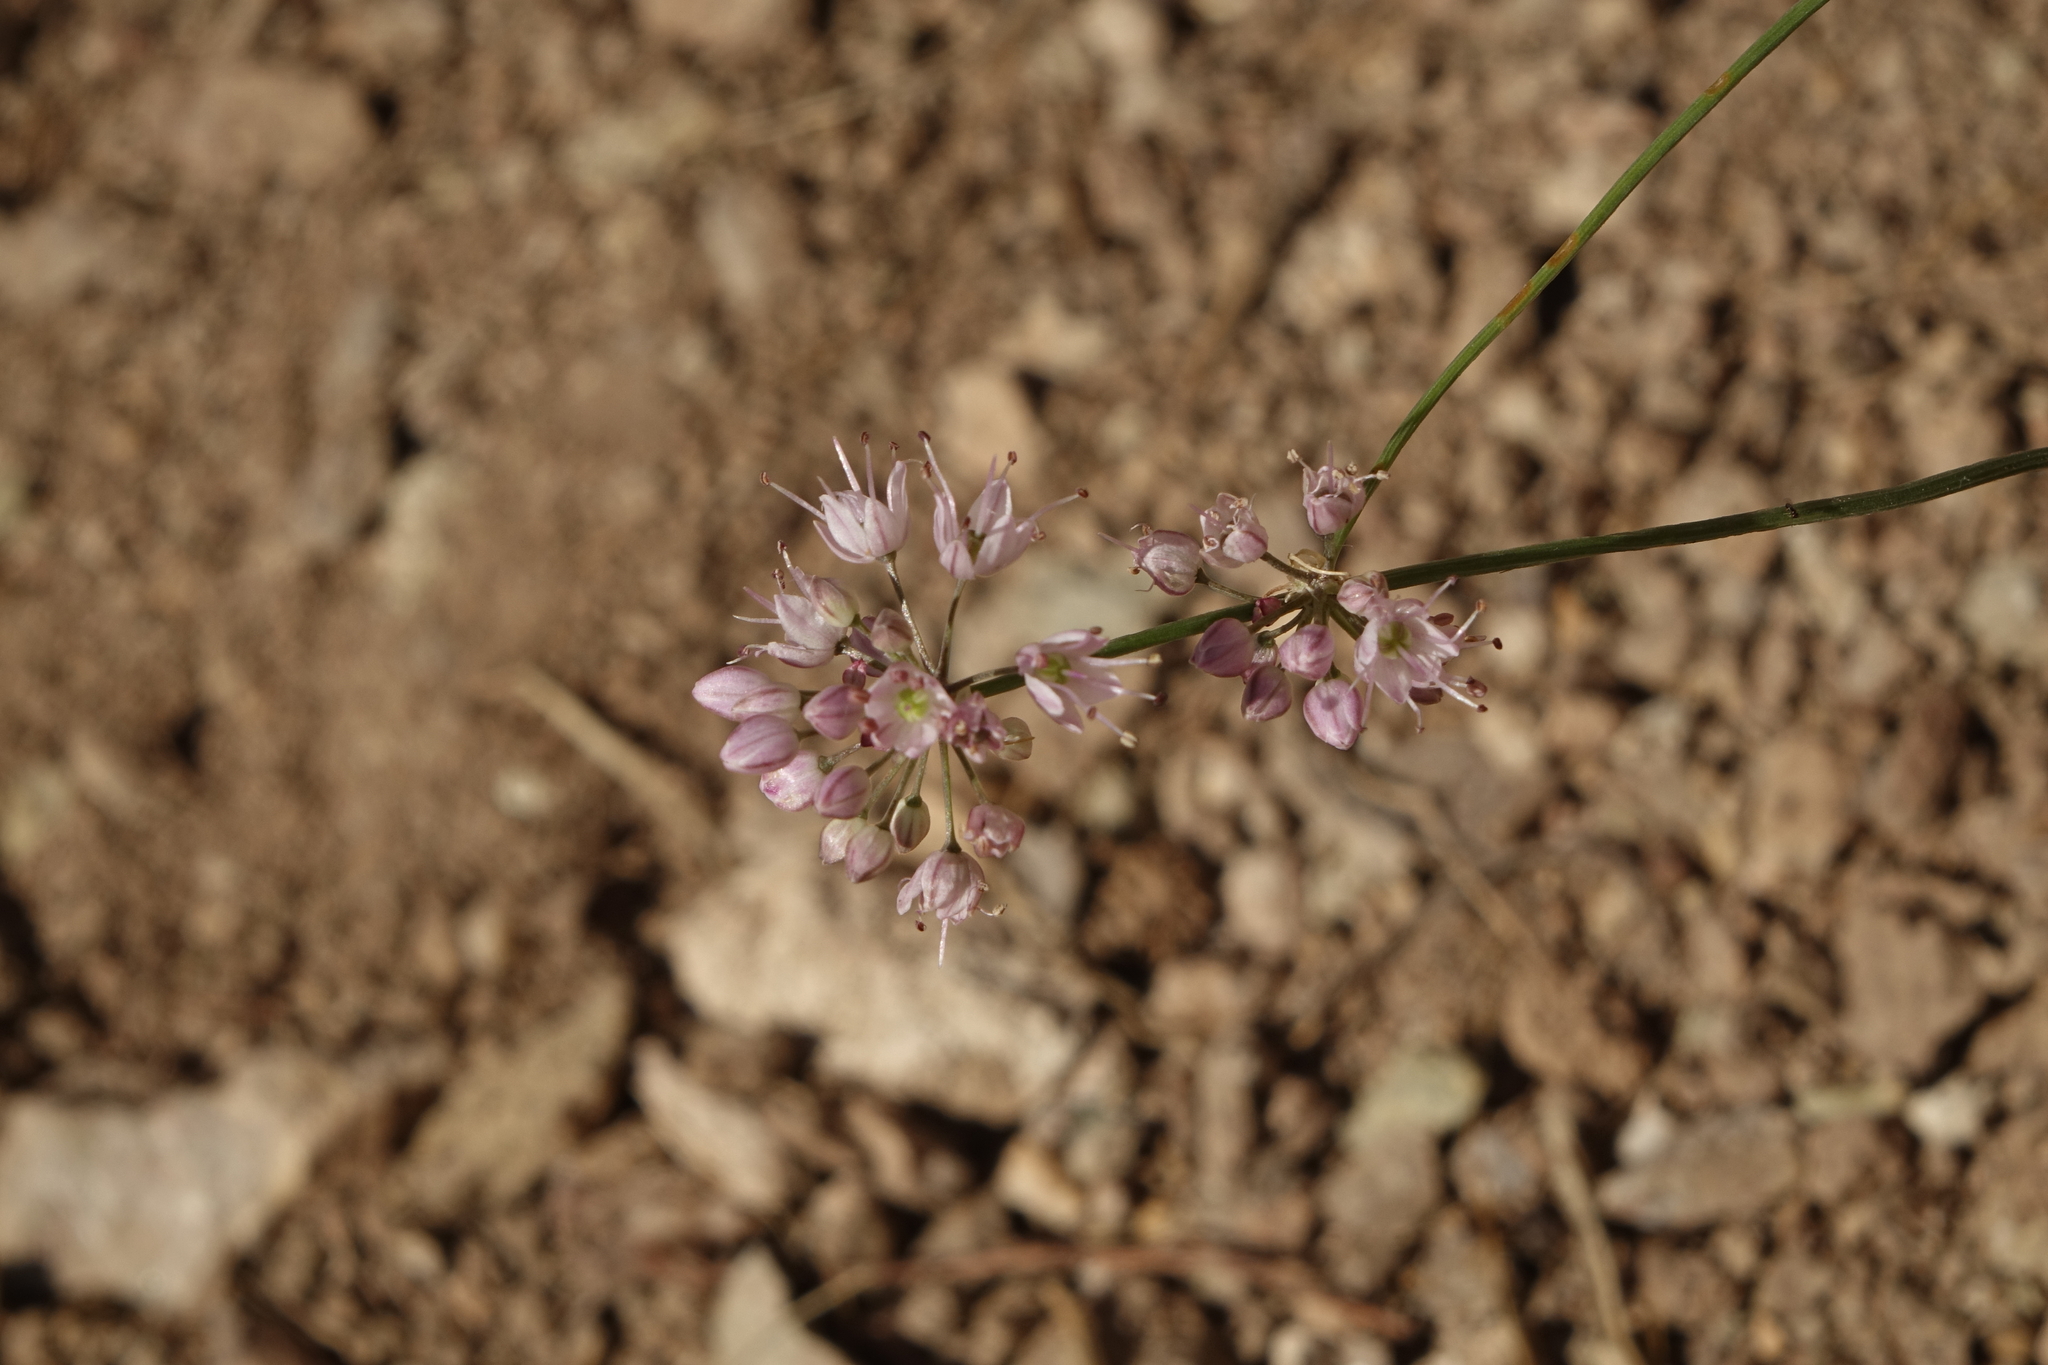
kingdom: Plantae
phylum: Tracheophyta
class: Liliopsida
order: Asparagales
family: Amaryllidaceae
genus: Allium
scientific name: Allium gunibicum
